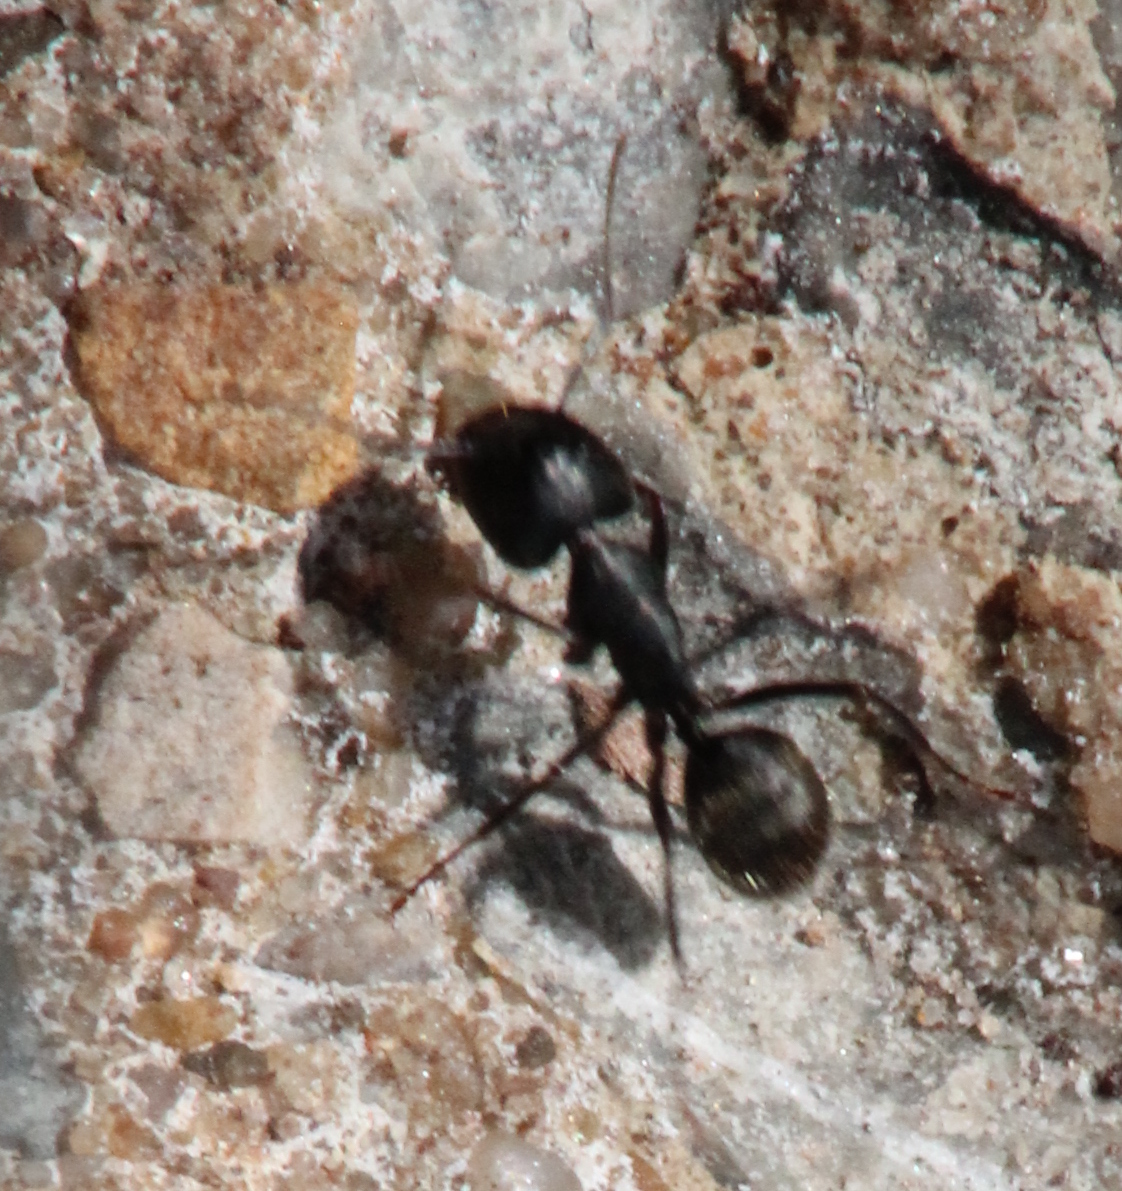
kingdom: Animalia
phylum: Arthropoda
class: Insecta
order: Hymenoptera
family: Formicidae
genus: Camponotus
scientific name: Camponotus pennsylvanicus
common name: Black carpenter ant
